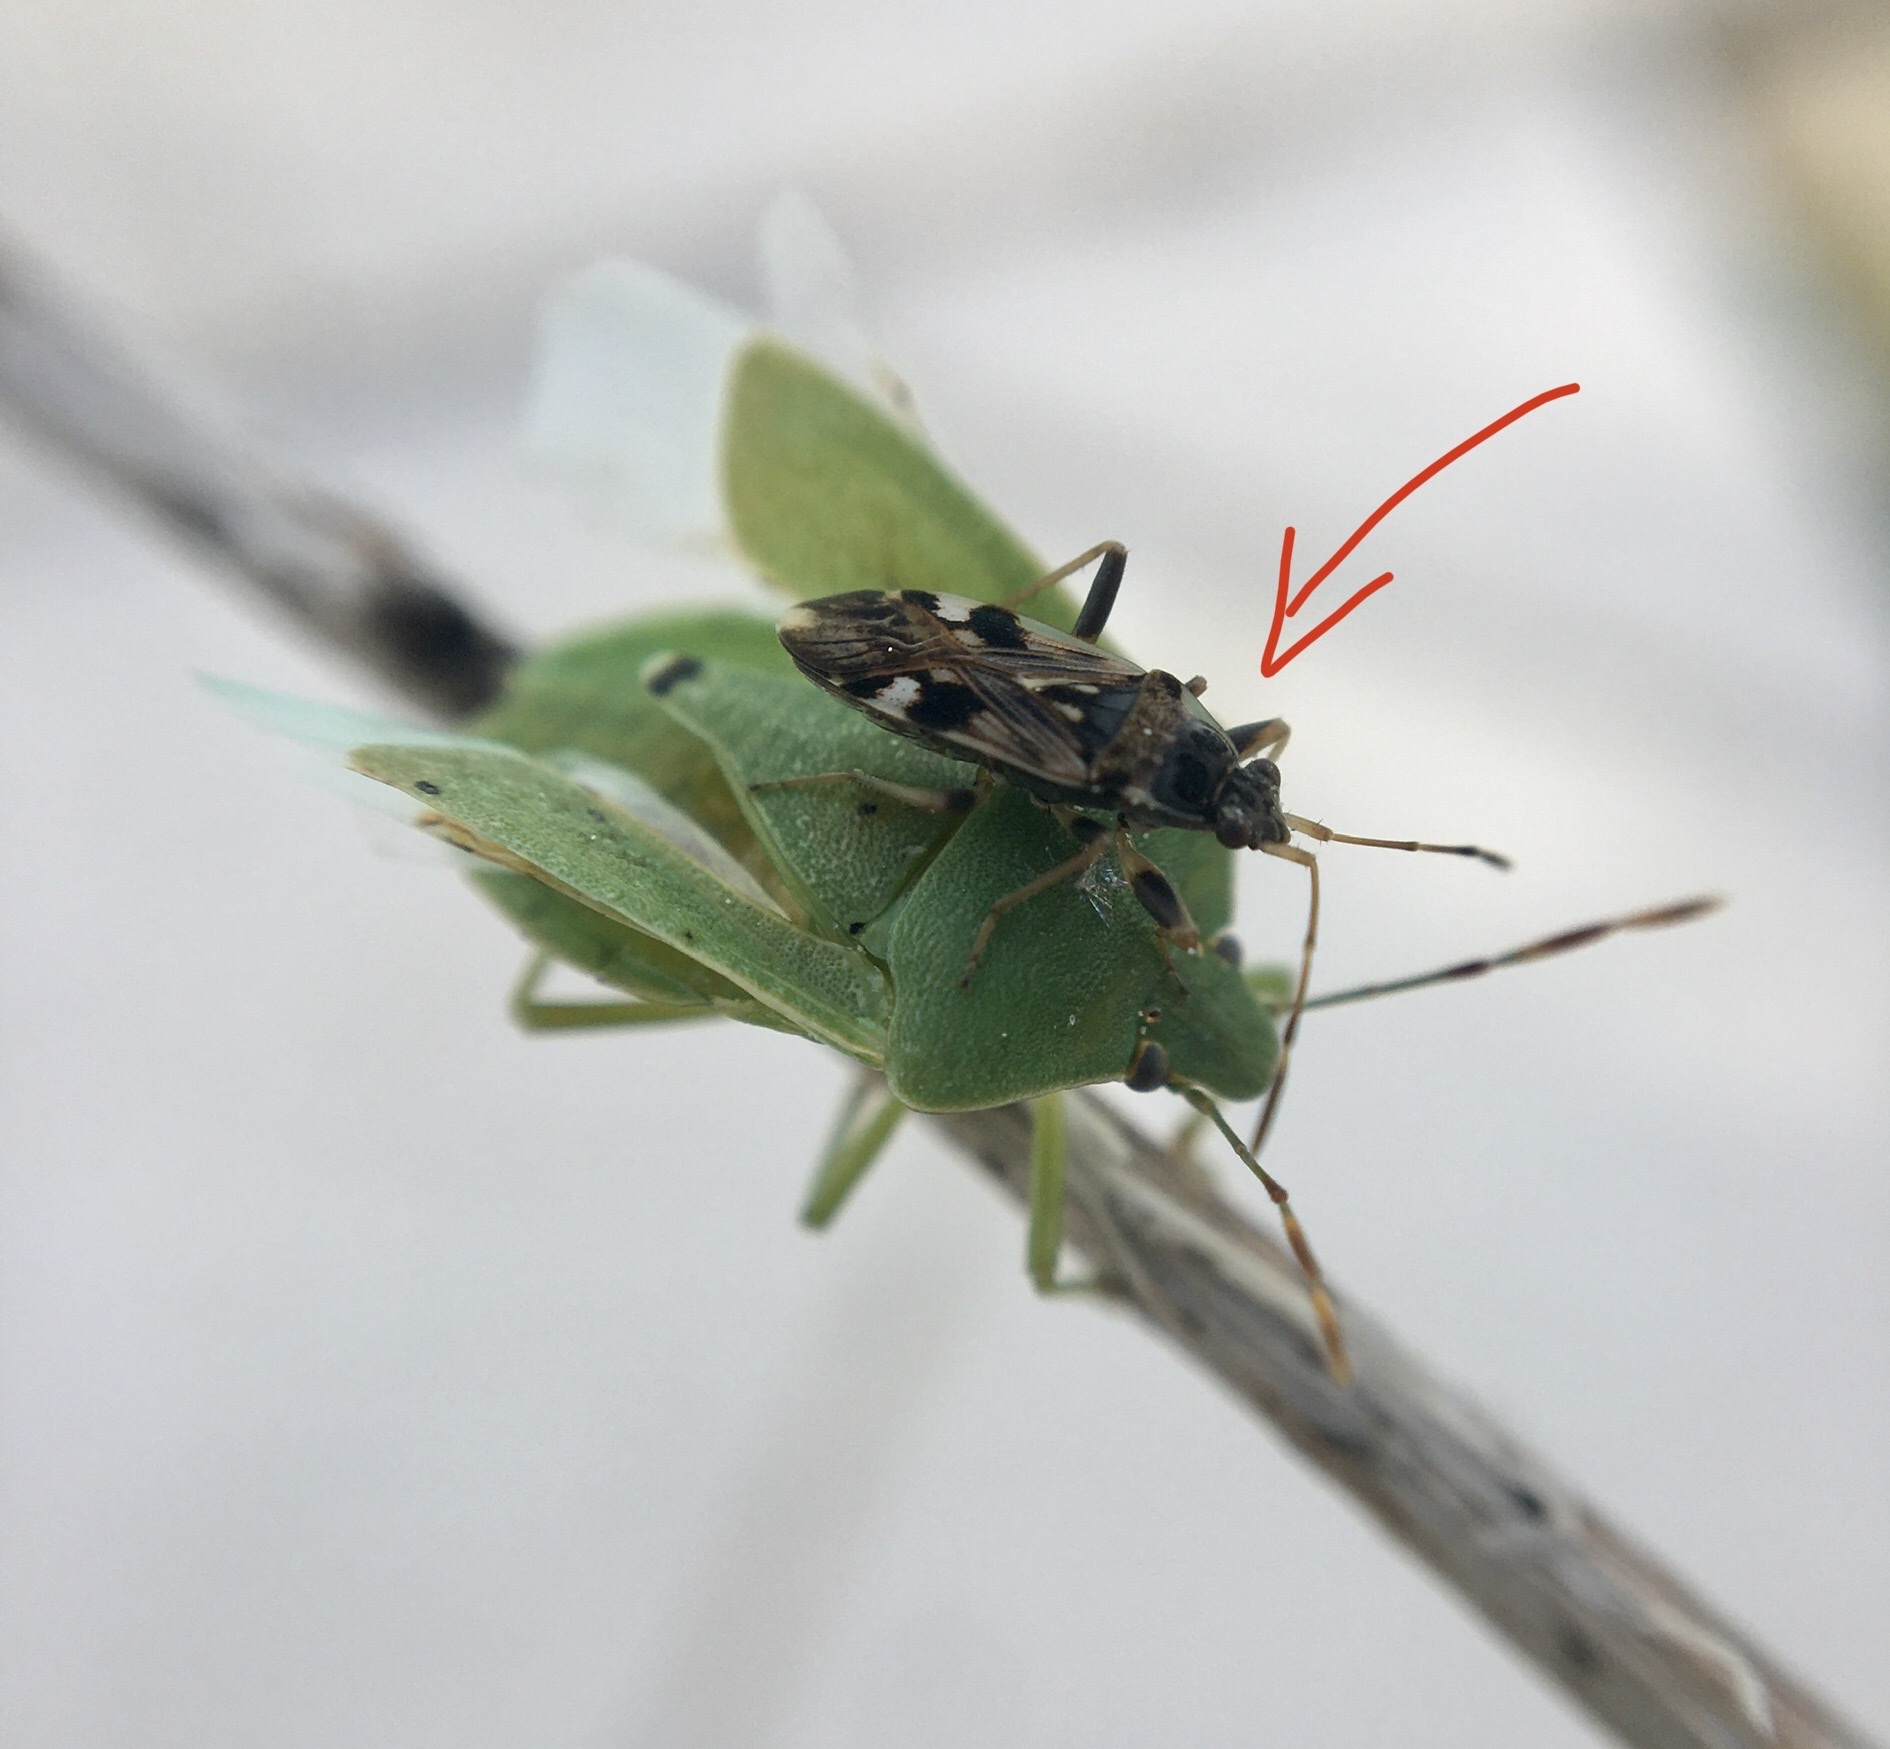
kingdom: Animalia
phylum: Arthropoda
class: Insecta
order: Hemiptera
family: Rhyparochromidae
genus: Beosus
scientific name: Beosus maritimus
